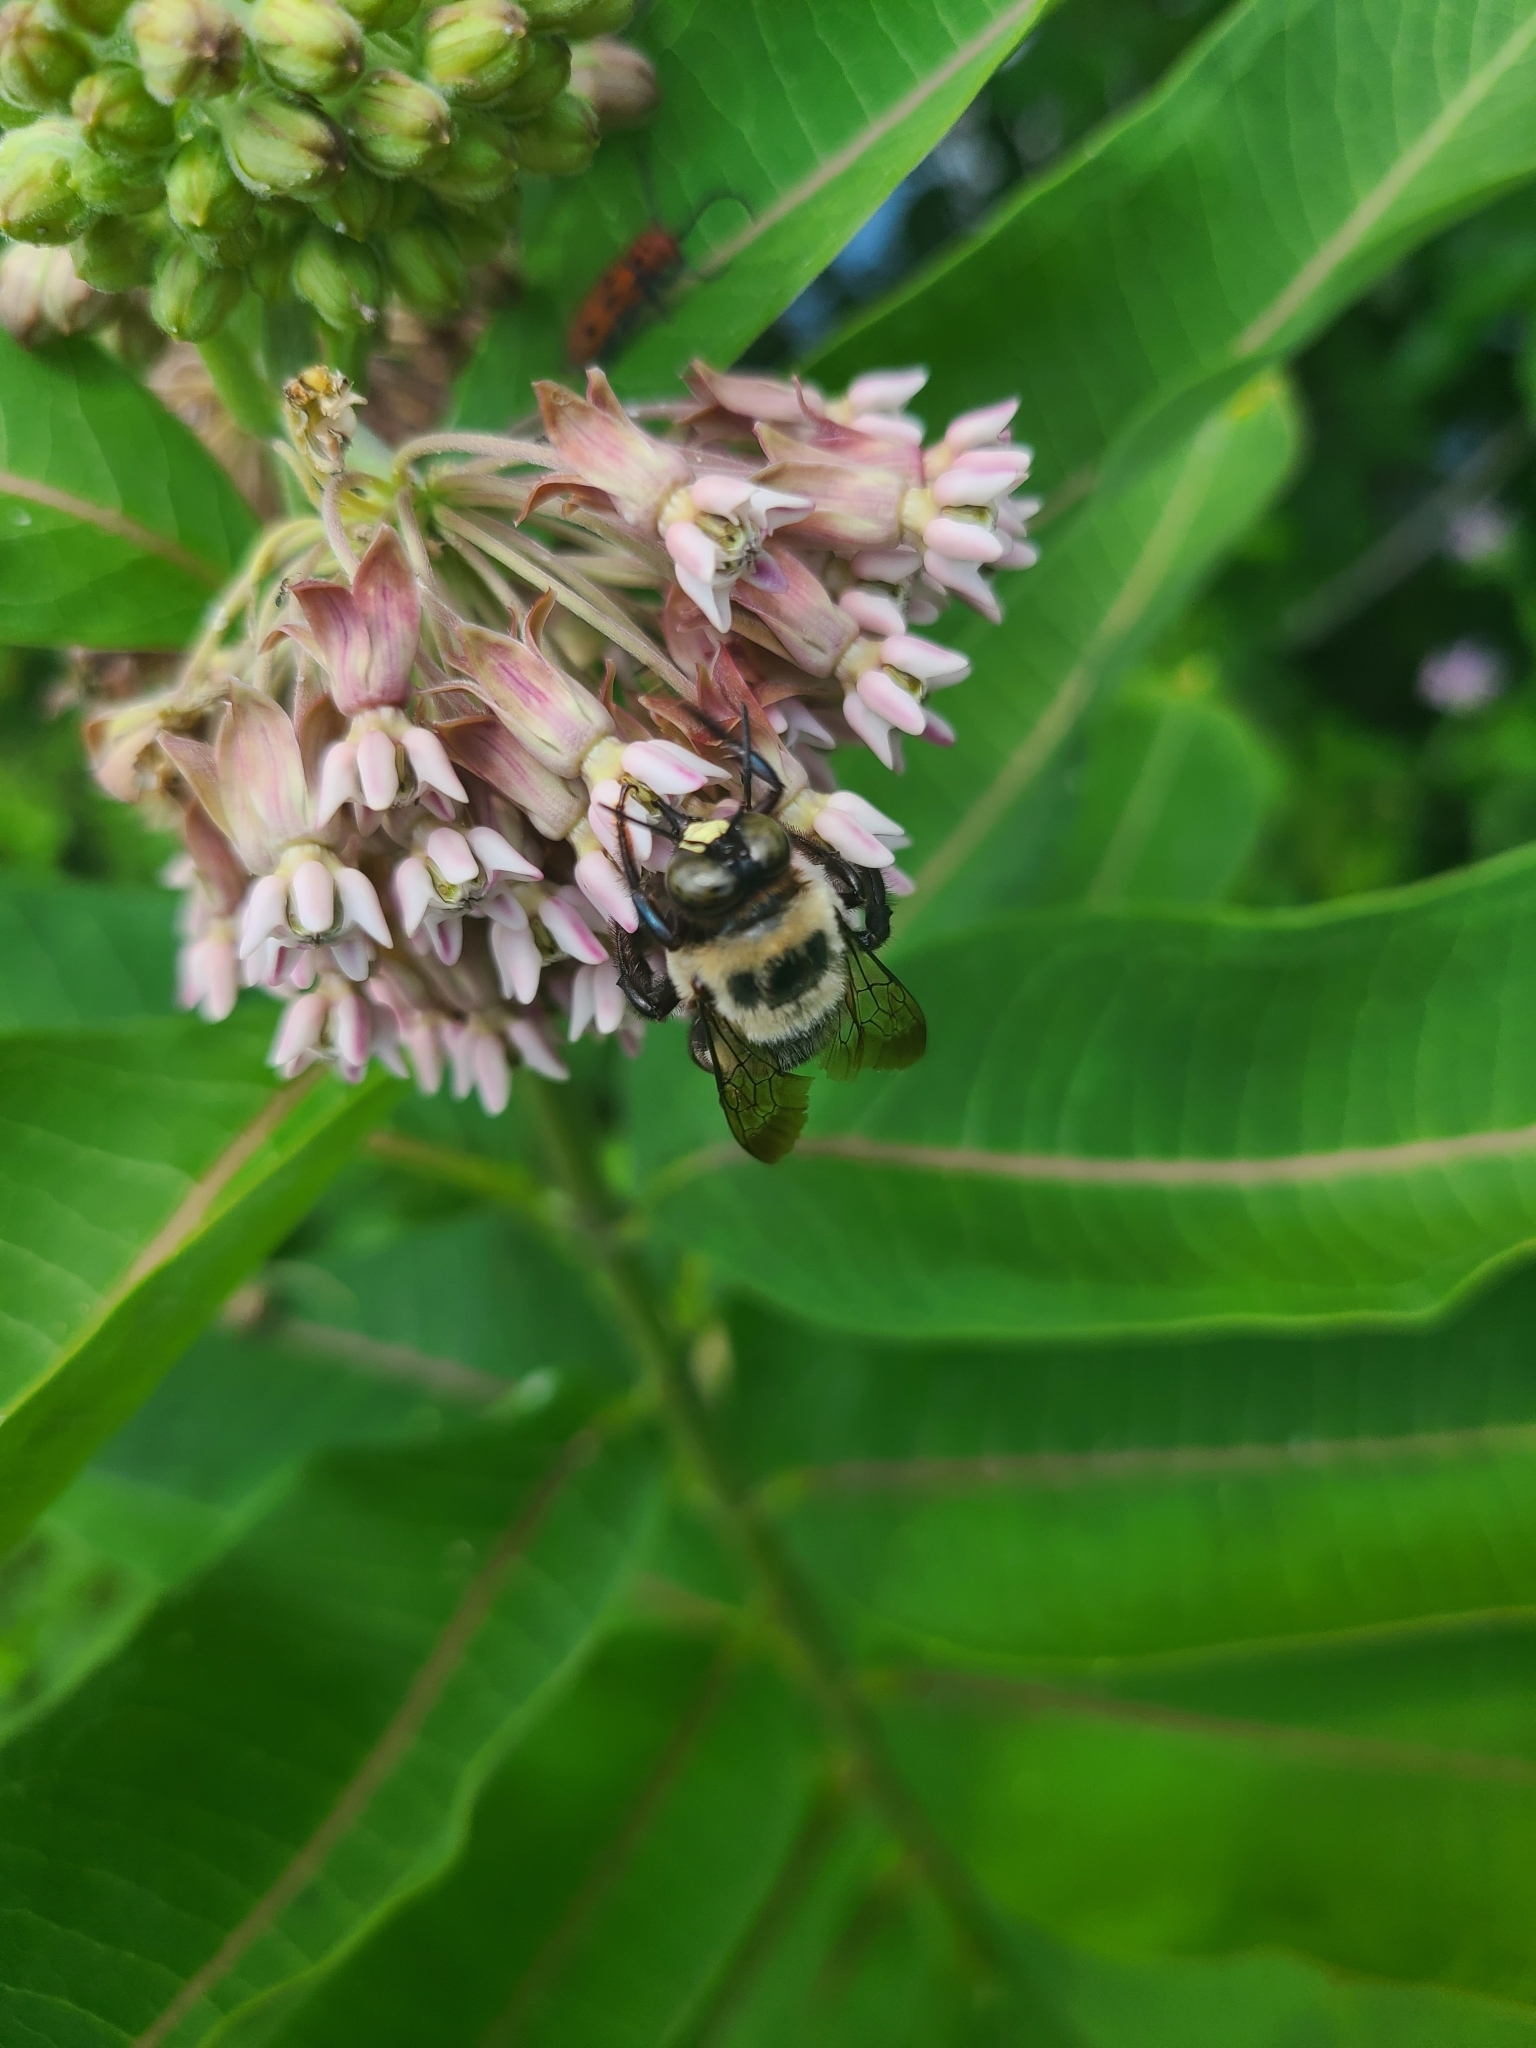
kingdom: Animalia
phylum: Arthropoda
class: Insecta
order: Hymenoptera
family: Apidae
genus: Xylocopa
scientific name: Xylocopa virginica
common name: Carpenter bee
